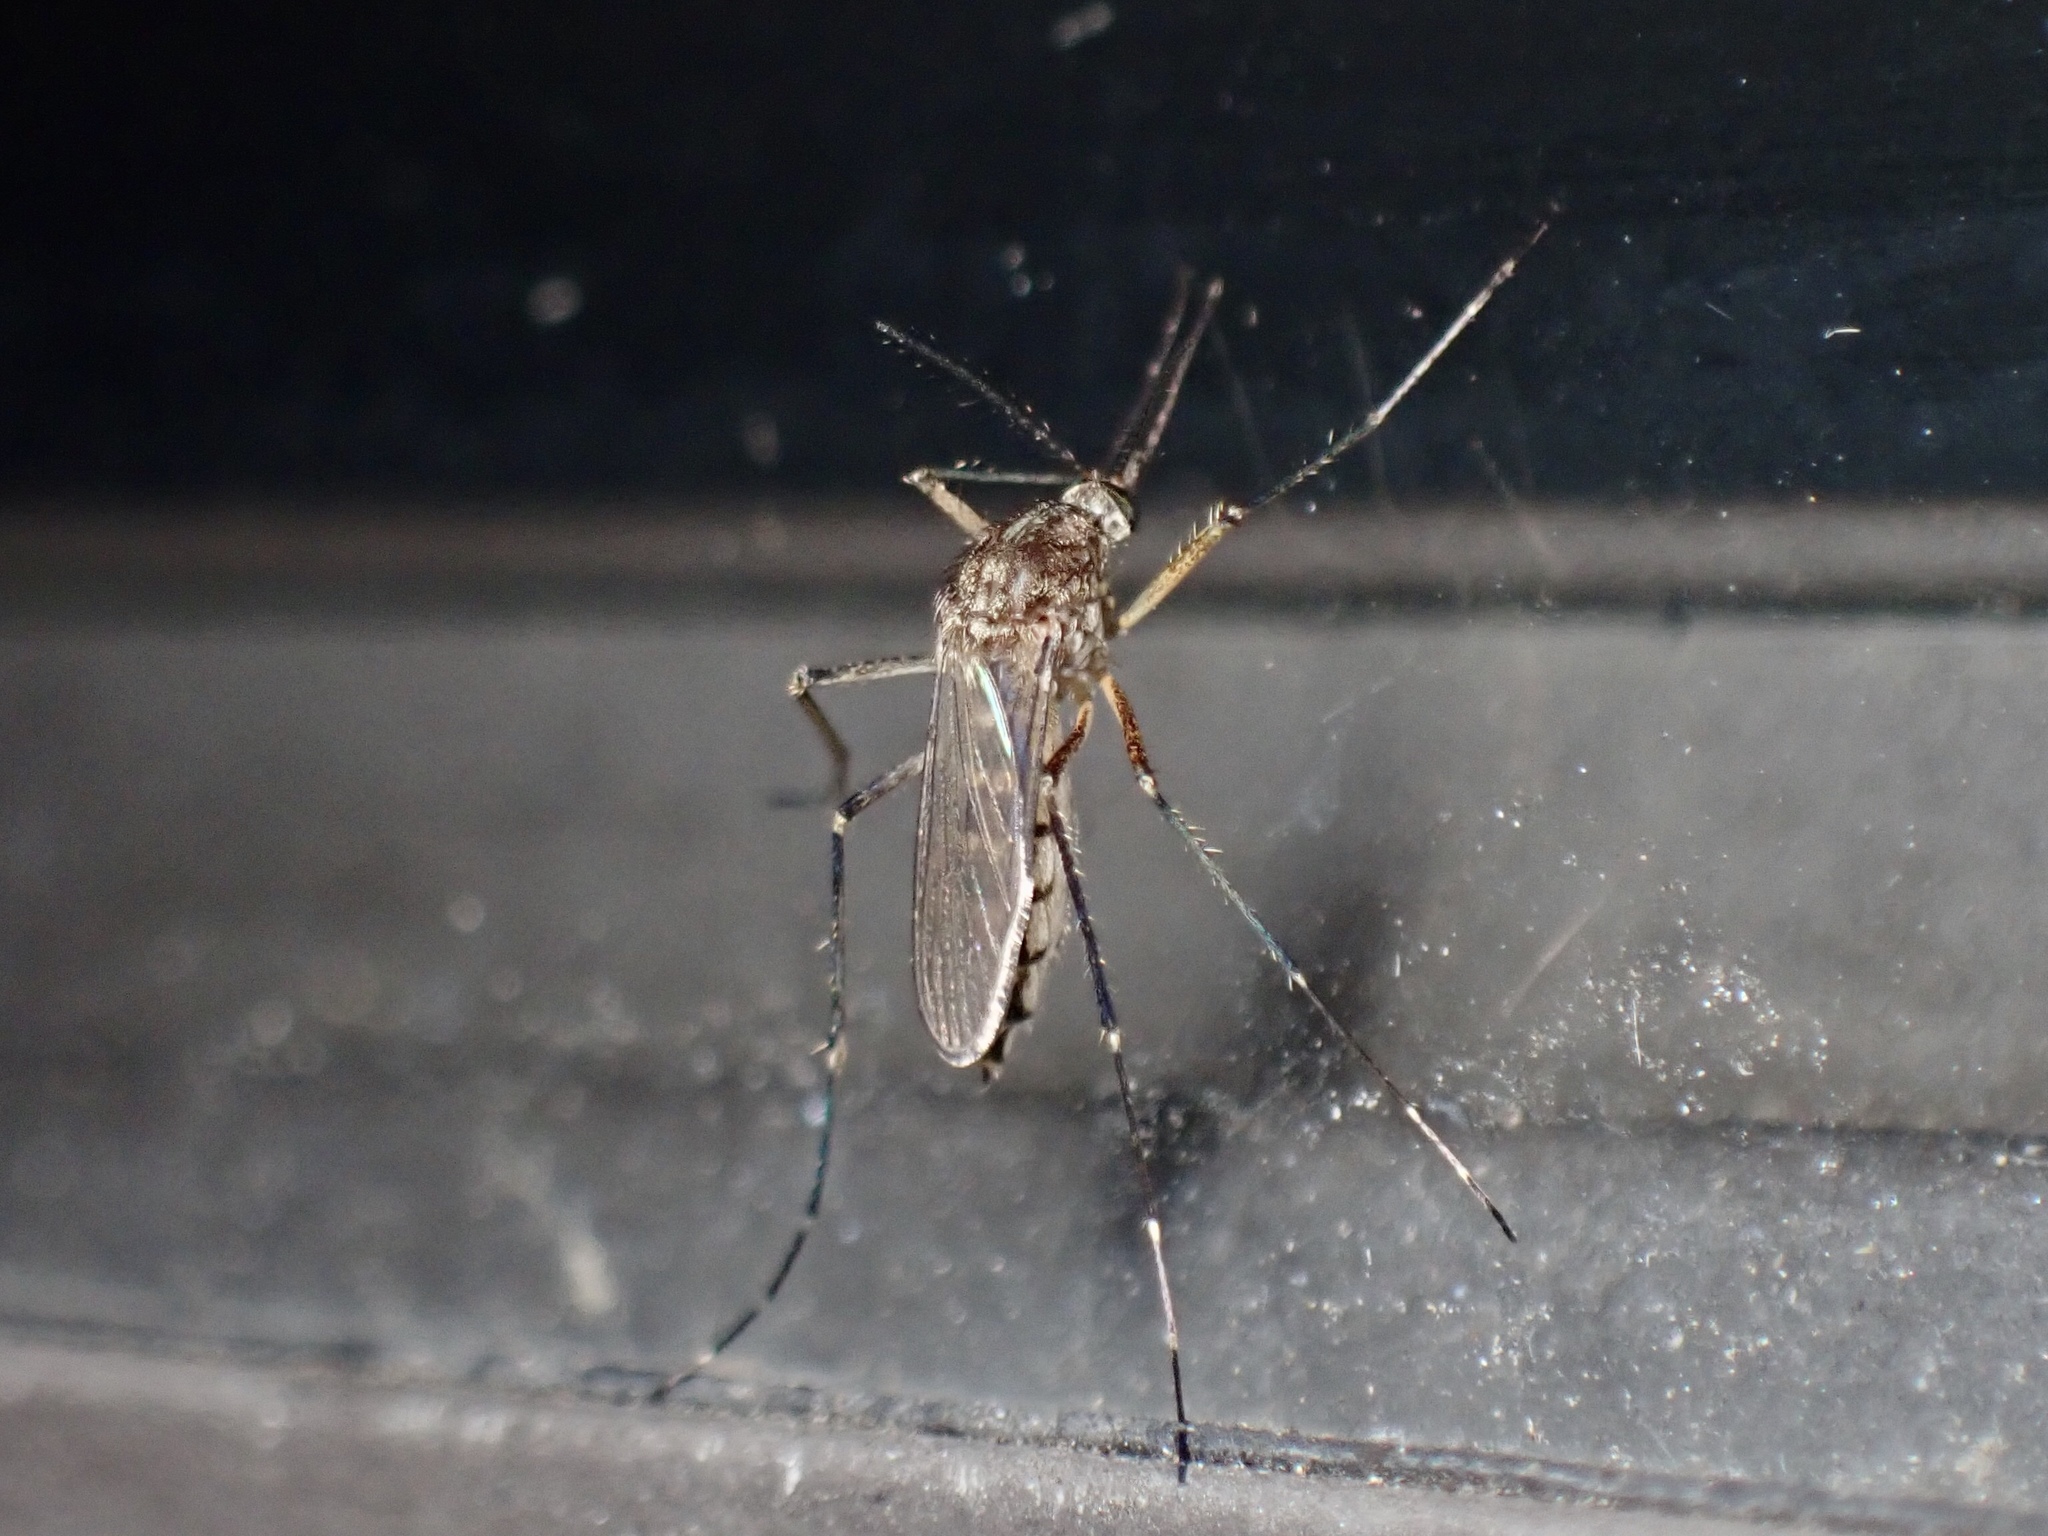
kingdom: Animalia
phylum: Arthropoda
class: Insecta
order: Diptera
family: Culicidae
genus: Aedes
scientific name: Aedes vexans
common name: Inland floodwater mosquito
